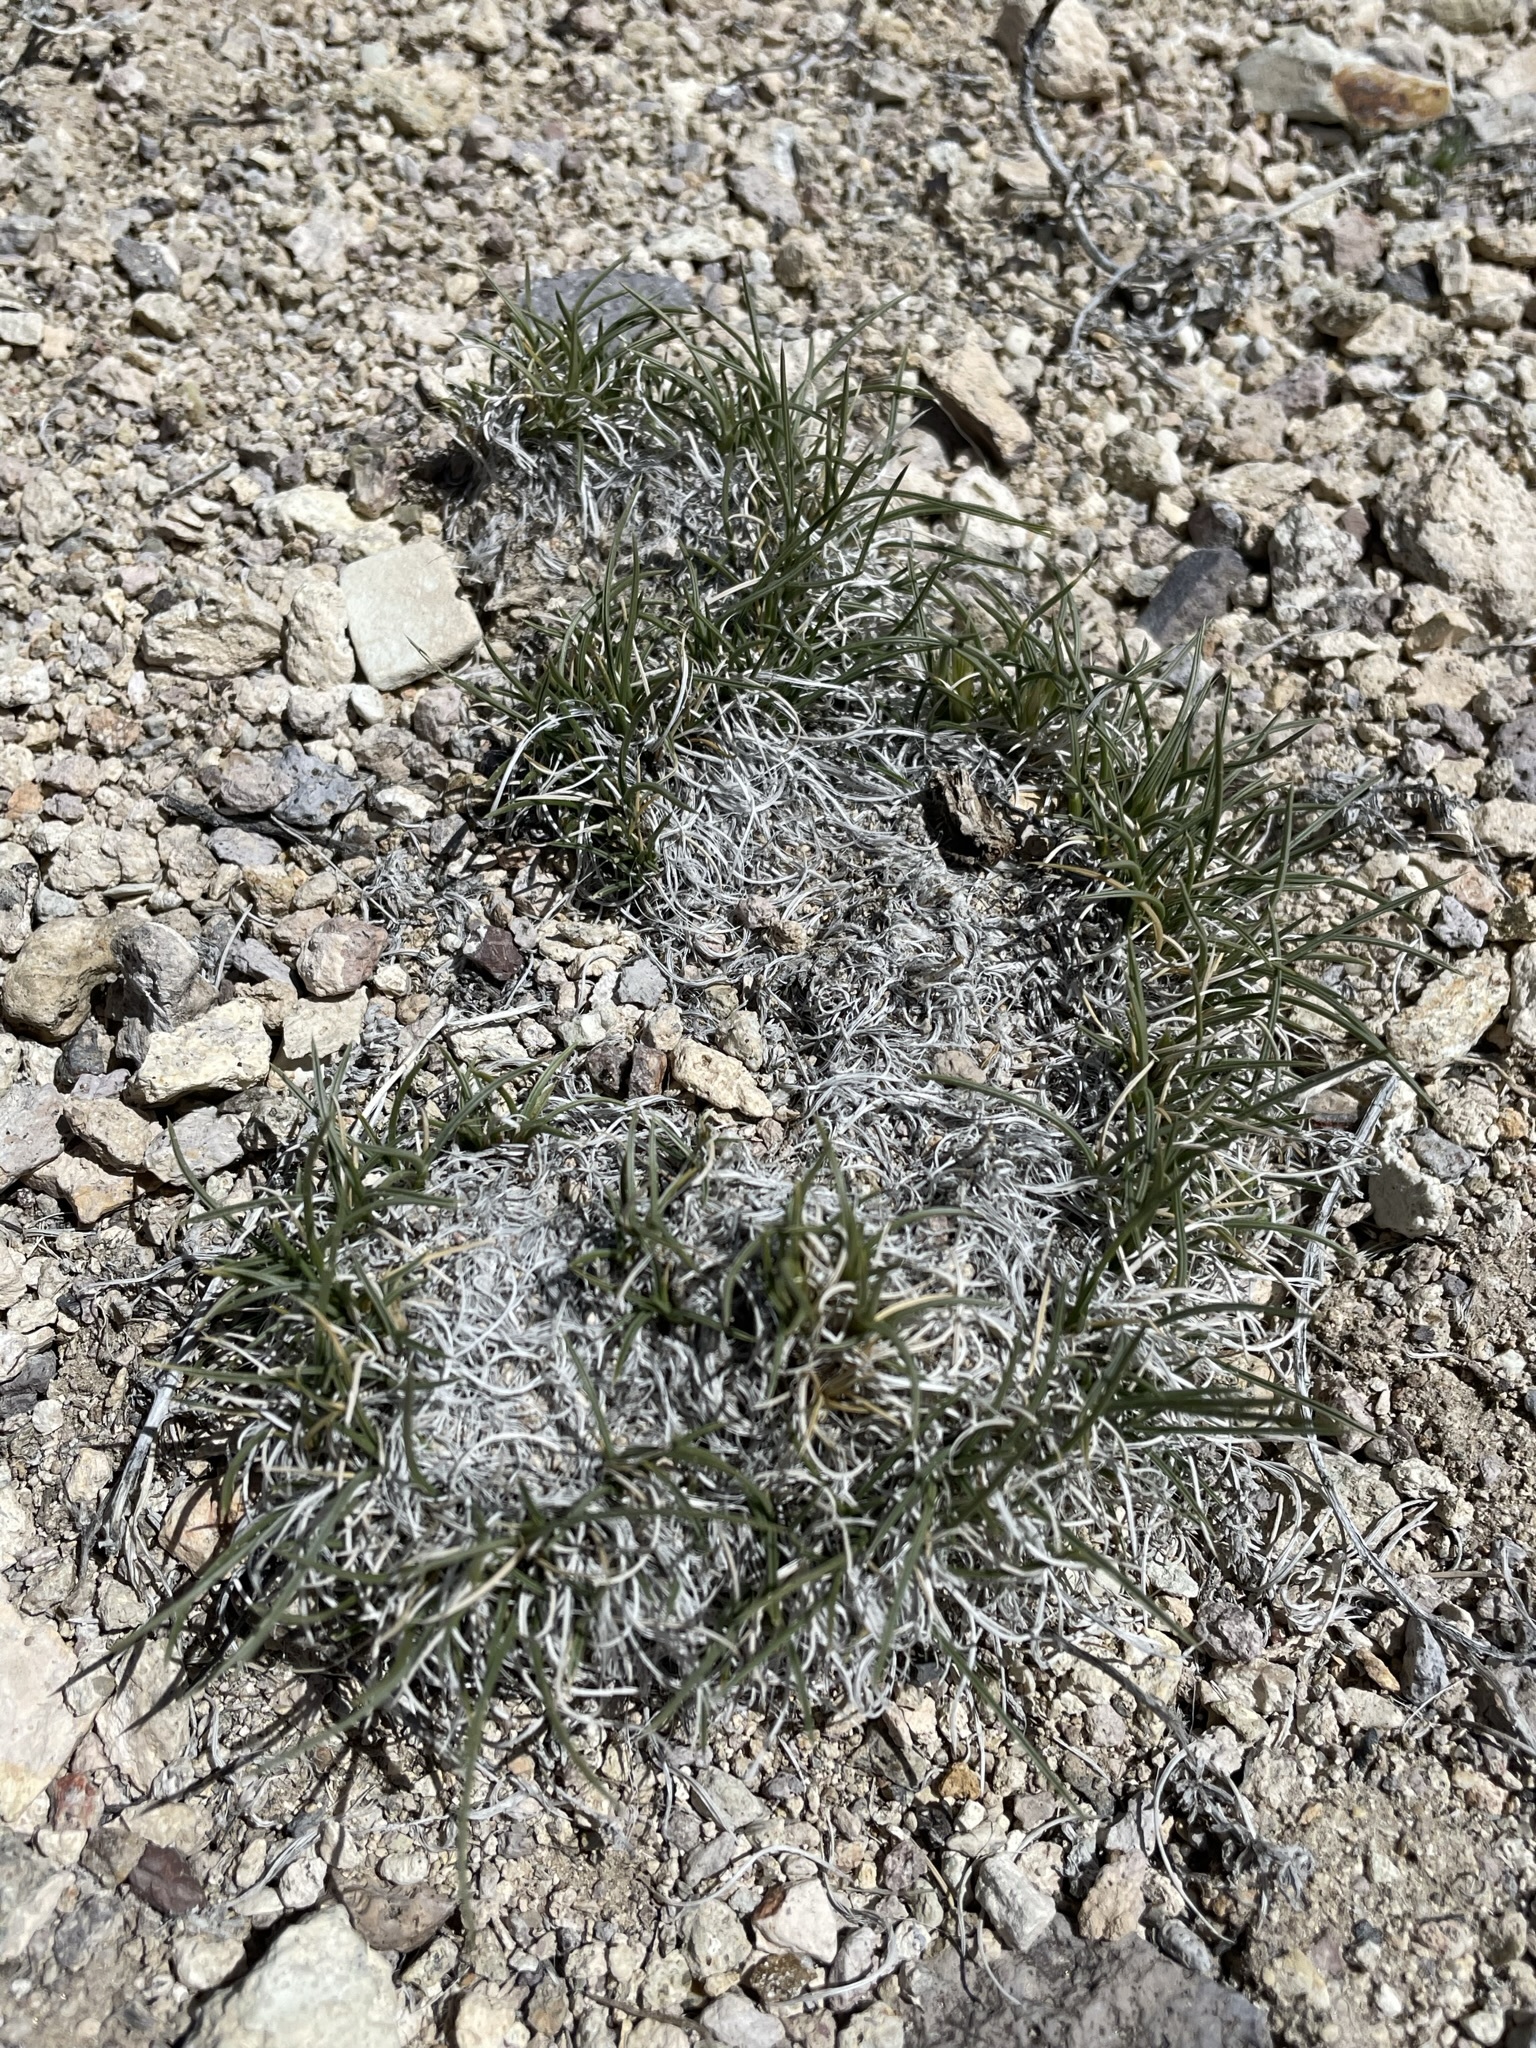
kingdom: Plantae
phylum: Tracheophyta
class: Liliopsida
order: Poales
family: Poaceae
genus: Blepharidachne
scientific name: Blepharidachne kingii
